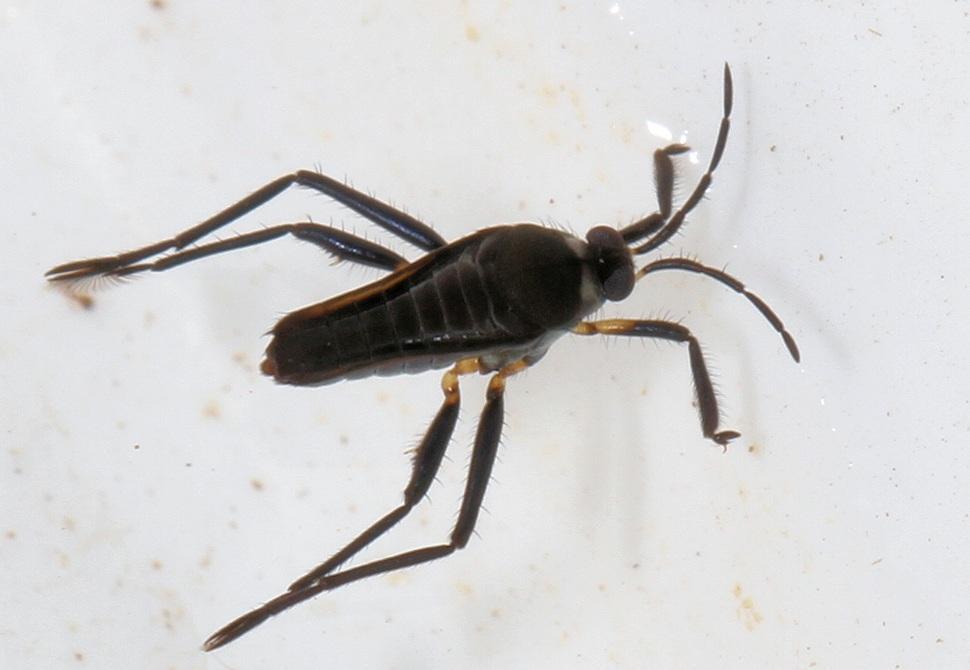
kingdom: Animalia
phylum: Arthropoda
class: Insecta
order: Hemiptera
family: Veliidae
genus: Rhagovelia
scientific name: Rhagovelia
